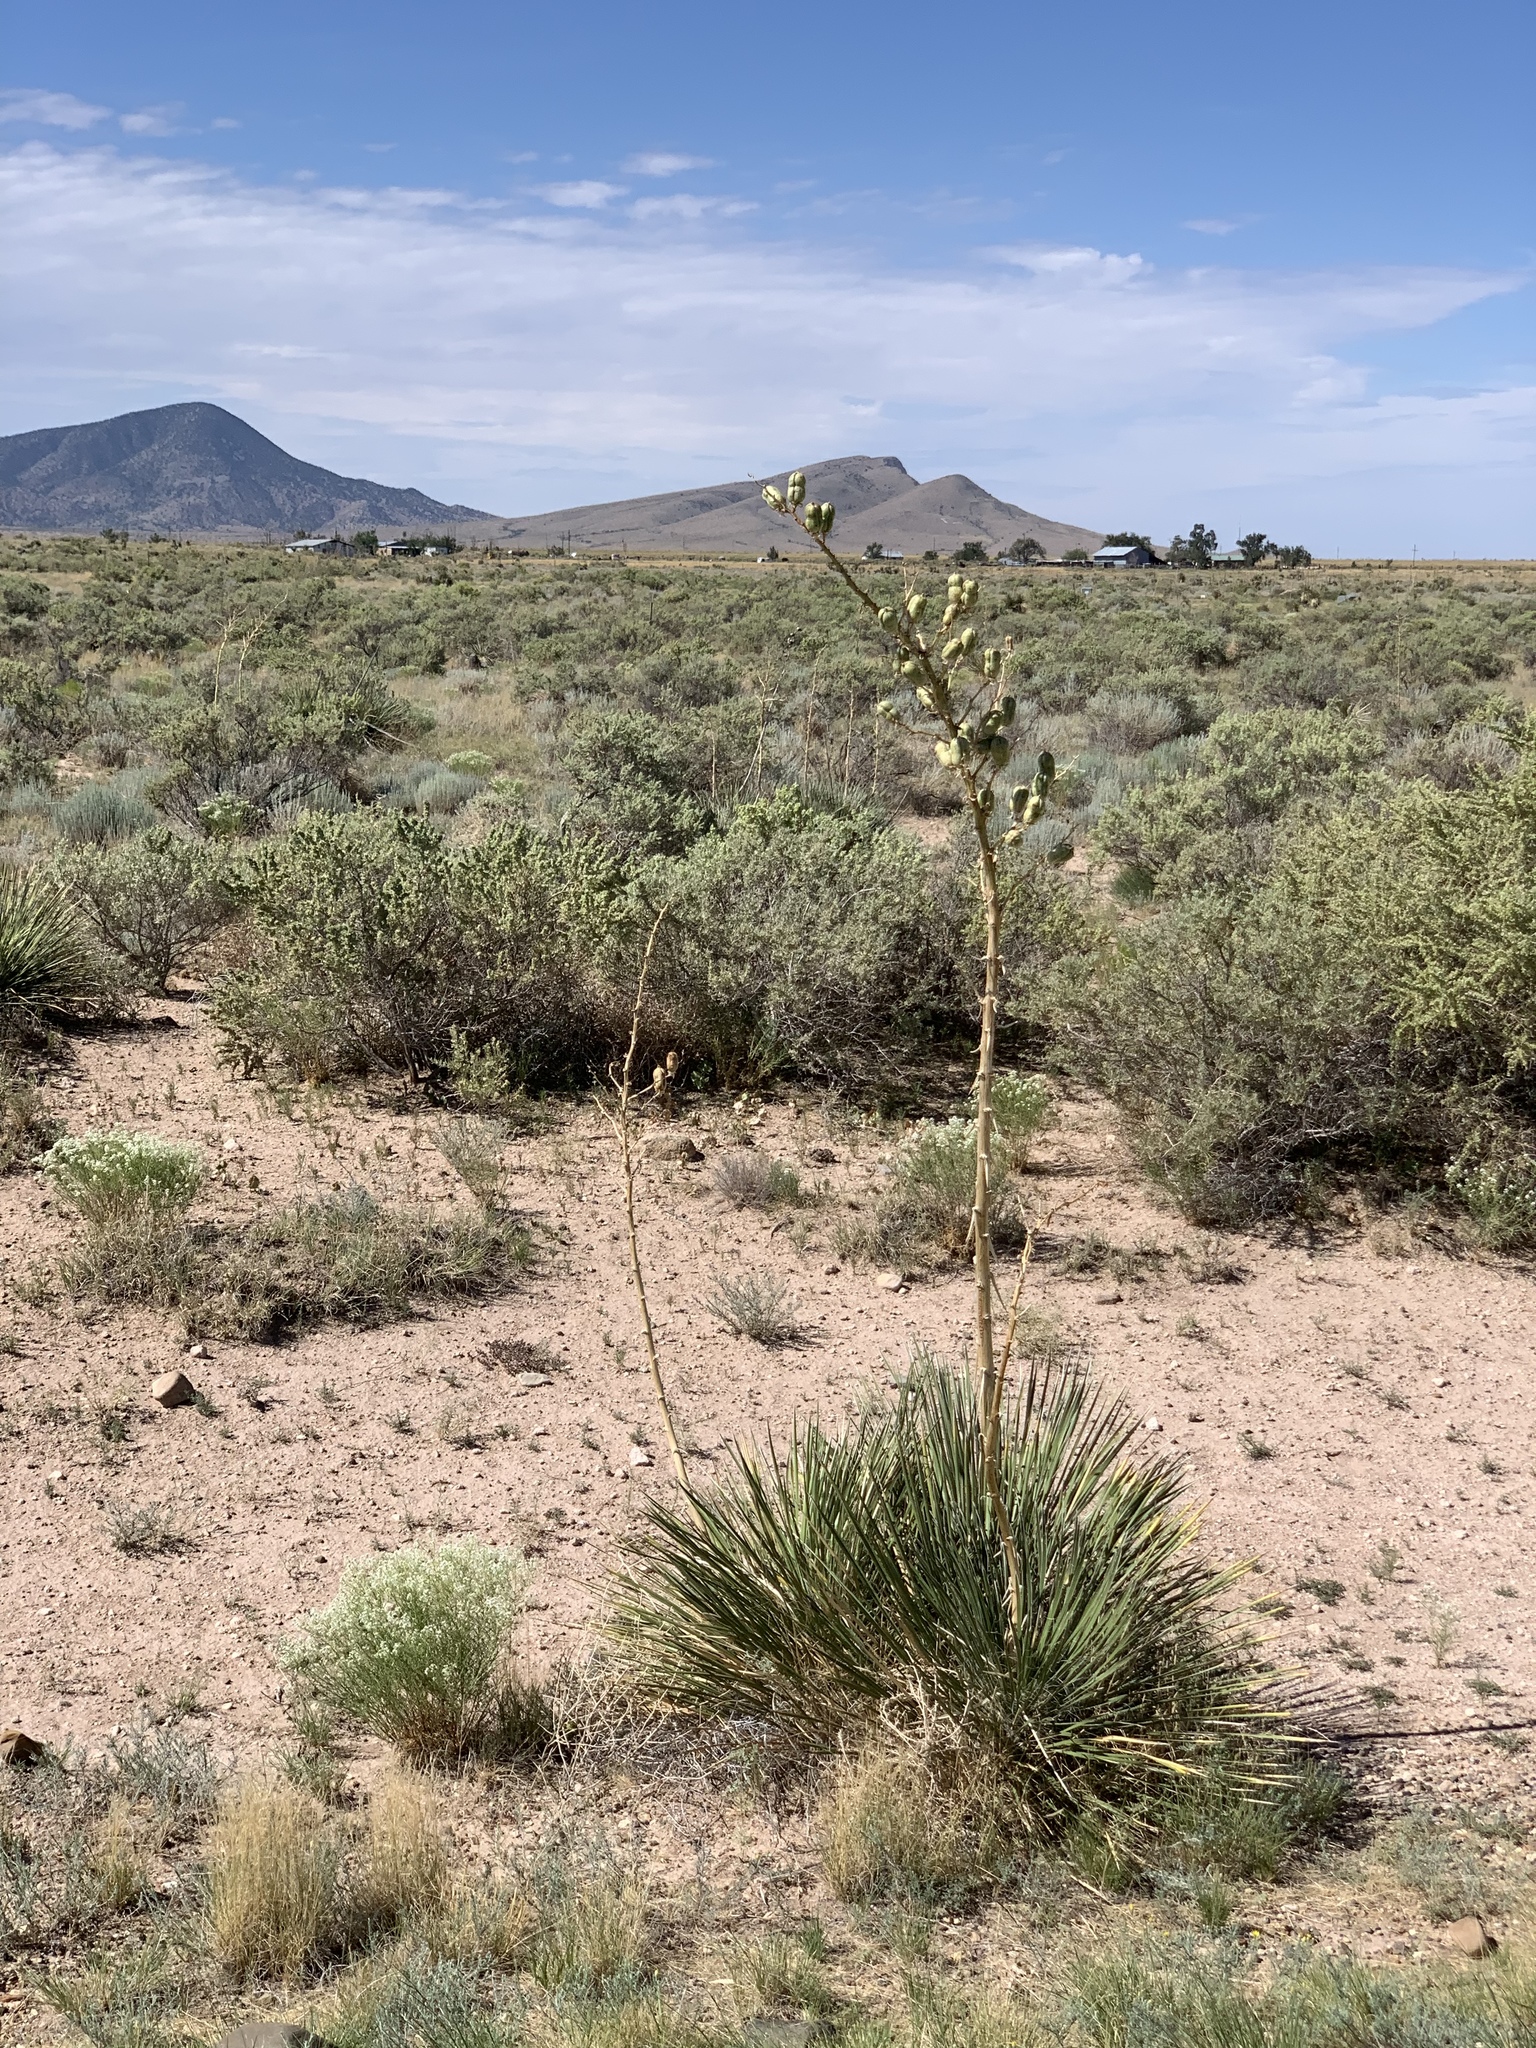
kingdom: Plantae
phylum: Tracheophyta
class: Liliopsida
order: Asparagales
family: Asparagaceae
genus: Yucca
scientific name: Yucca elata
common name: Palmella
